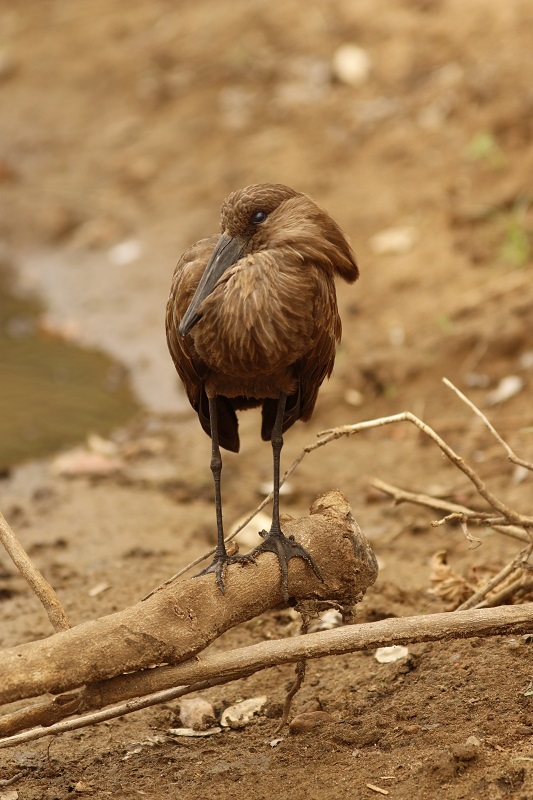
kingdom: Animalia
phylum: Chordata
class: Aves
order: Pelecaniformes
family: Scopidae
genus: Scopus
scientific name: Scopus umbretta
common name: Hamerkop
